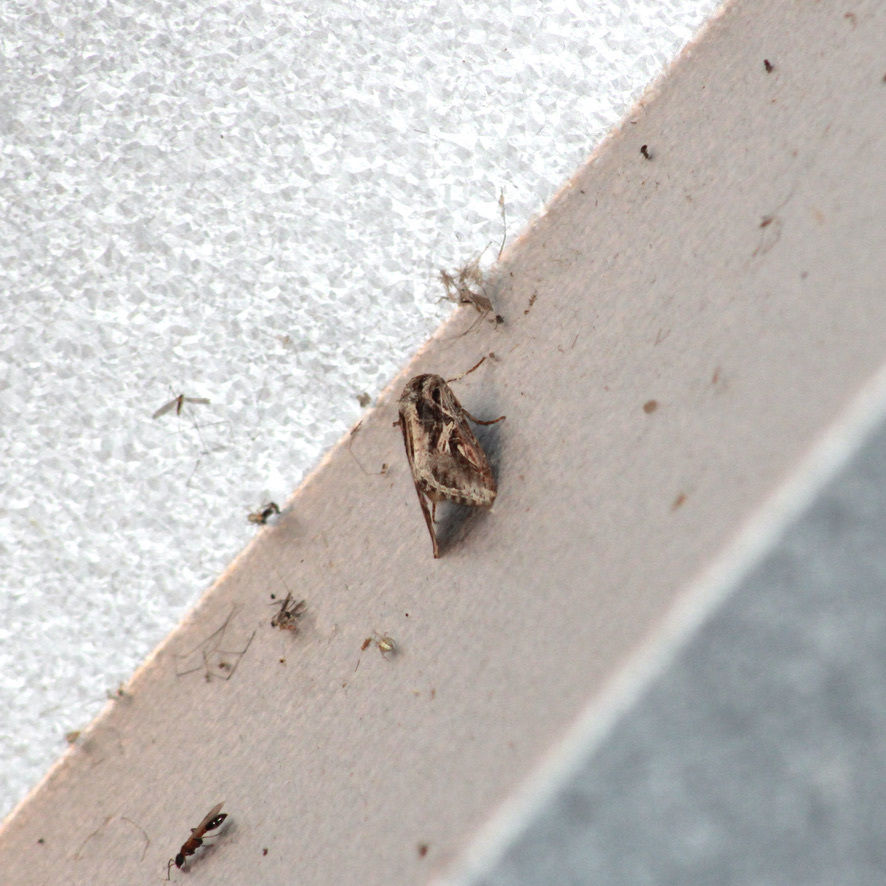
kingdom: Animalia
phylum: Arthropoda
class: Insecta
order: Lepidoptera
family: Noctuidae
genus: Spodoptera
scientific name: Spodoptera dolichos
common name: Sweetpotato armyworm
